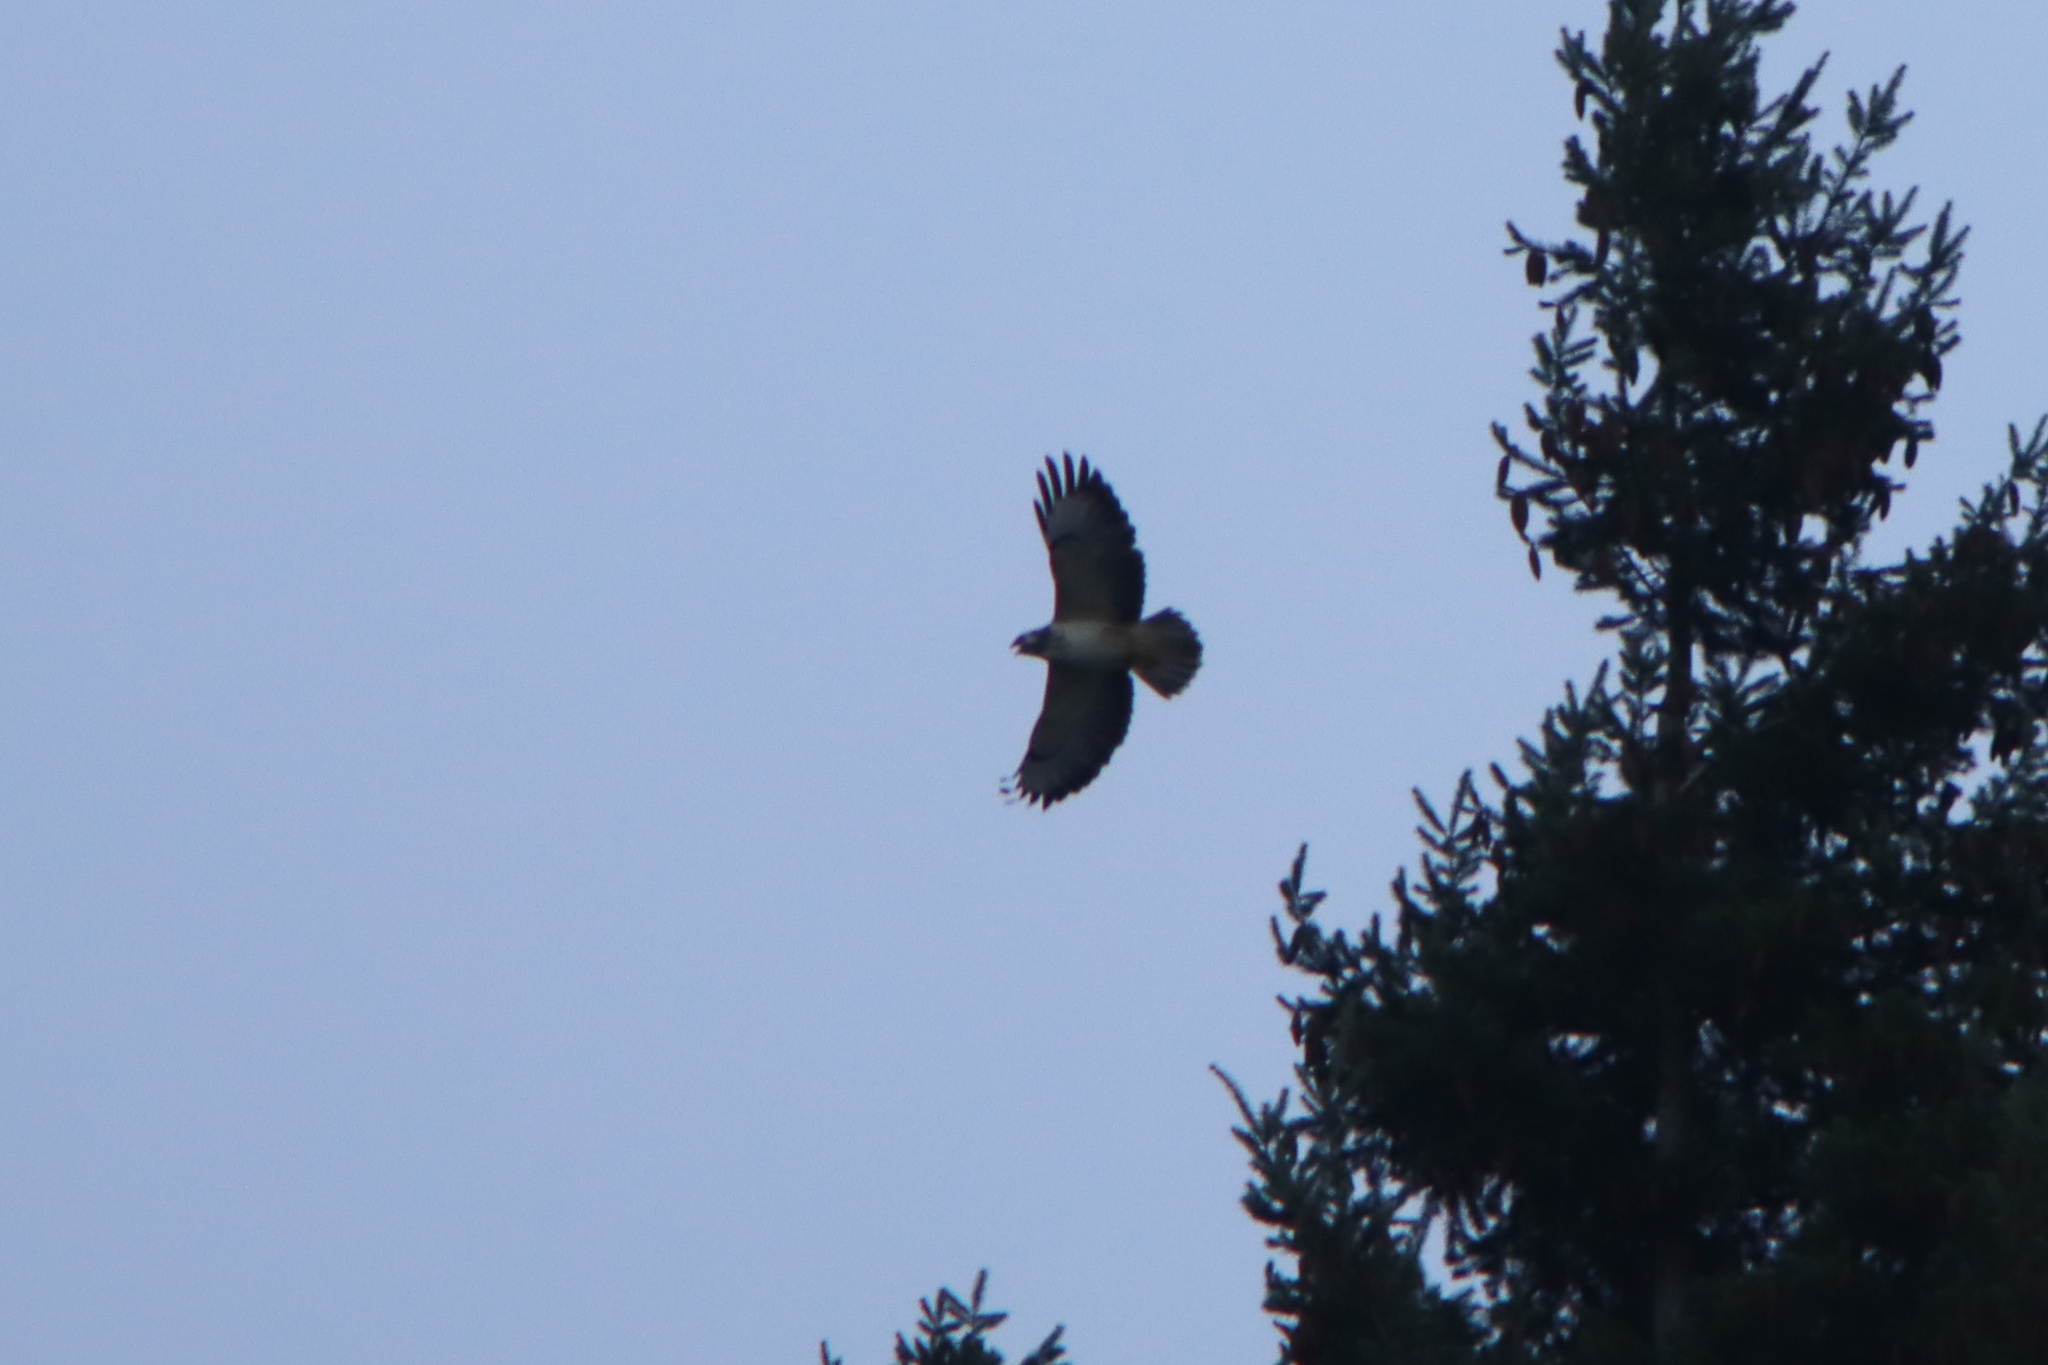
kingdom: Animalia
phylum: Chordata
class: Aves
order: Accipitriformes
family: Accipitridae
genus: Buteo
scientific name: Buteo buteo
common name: Common buzzard
